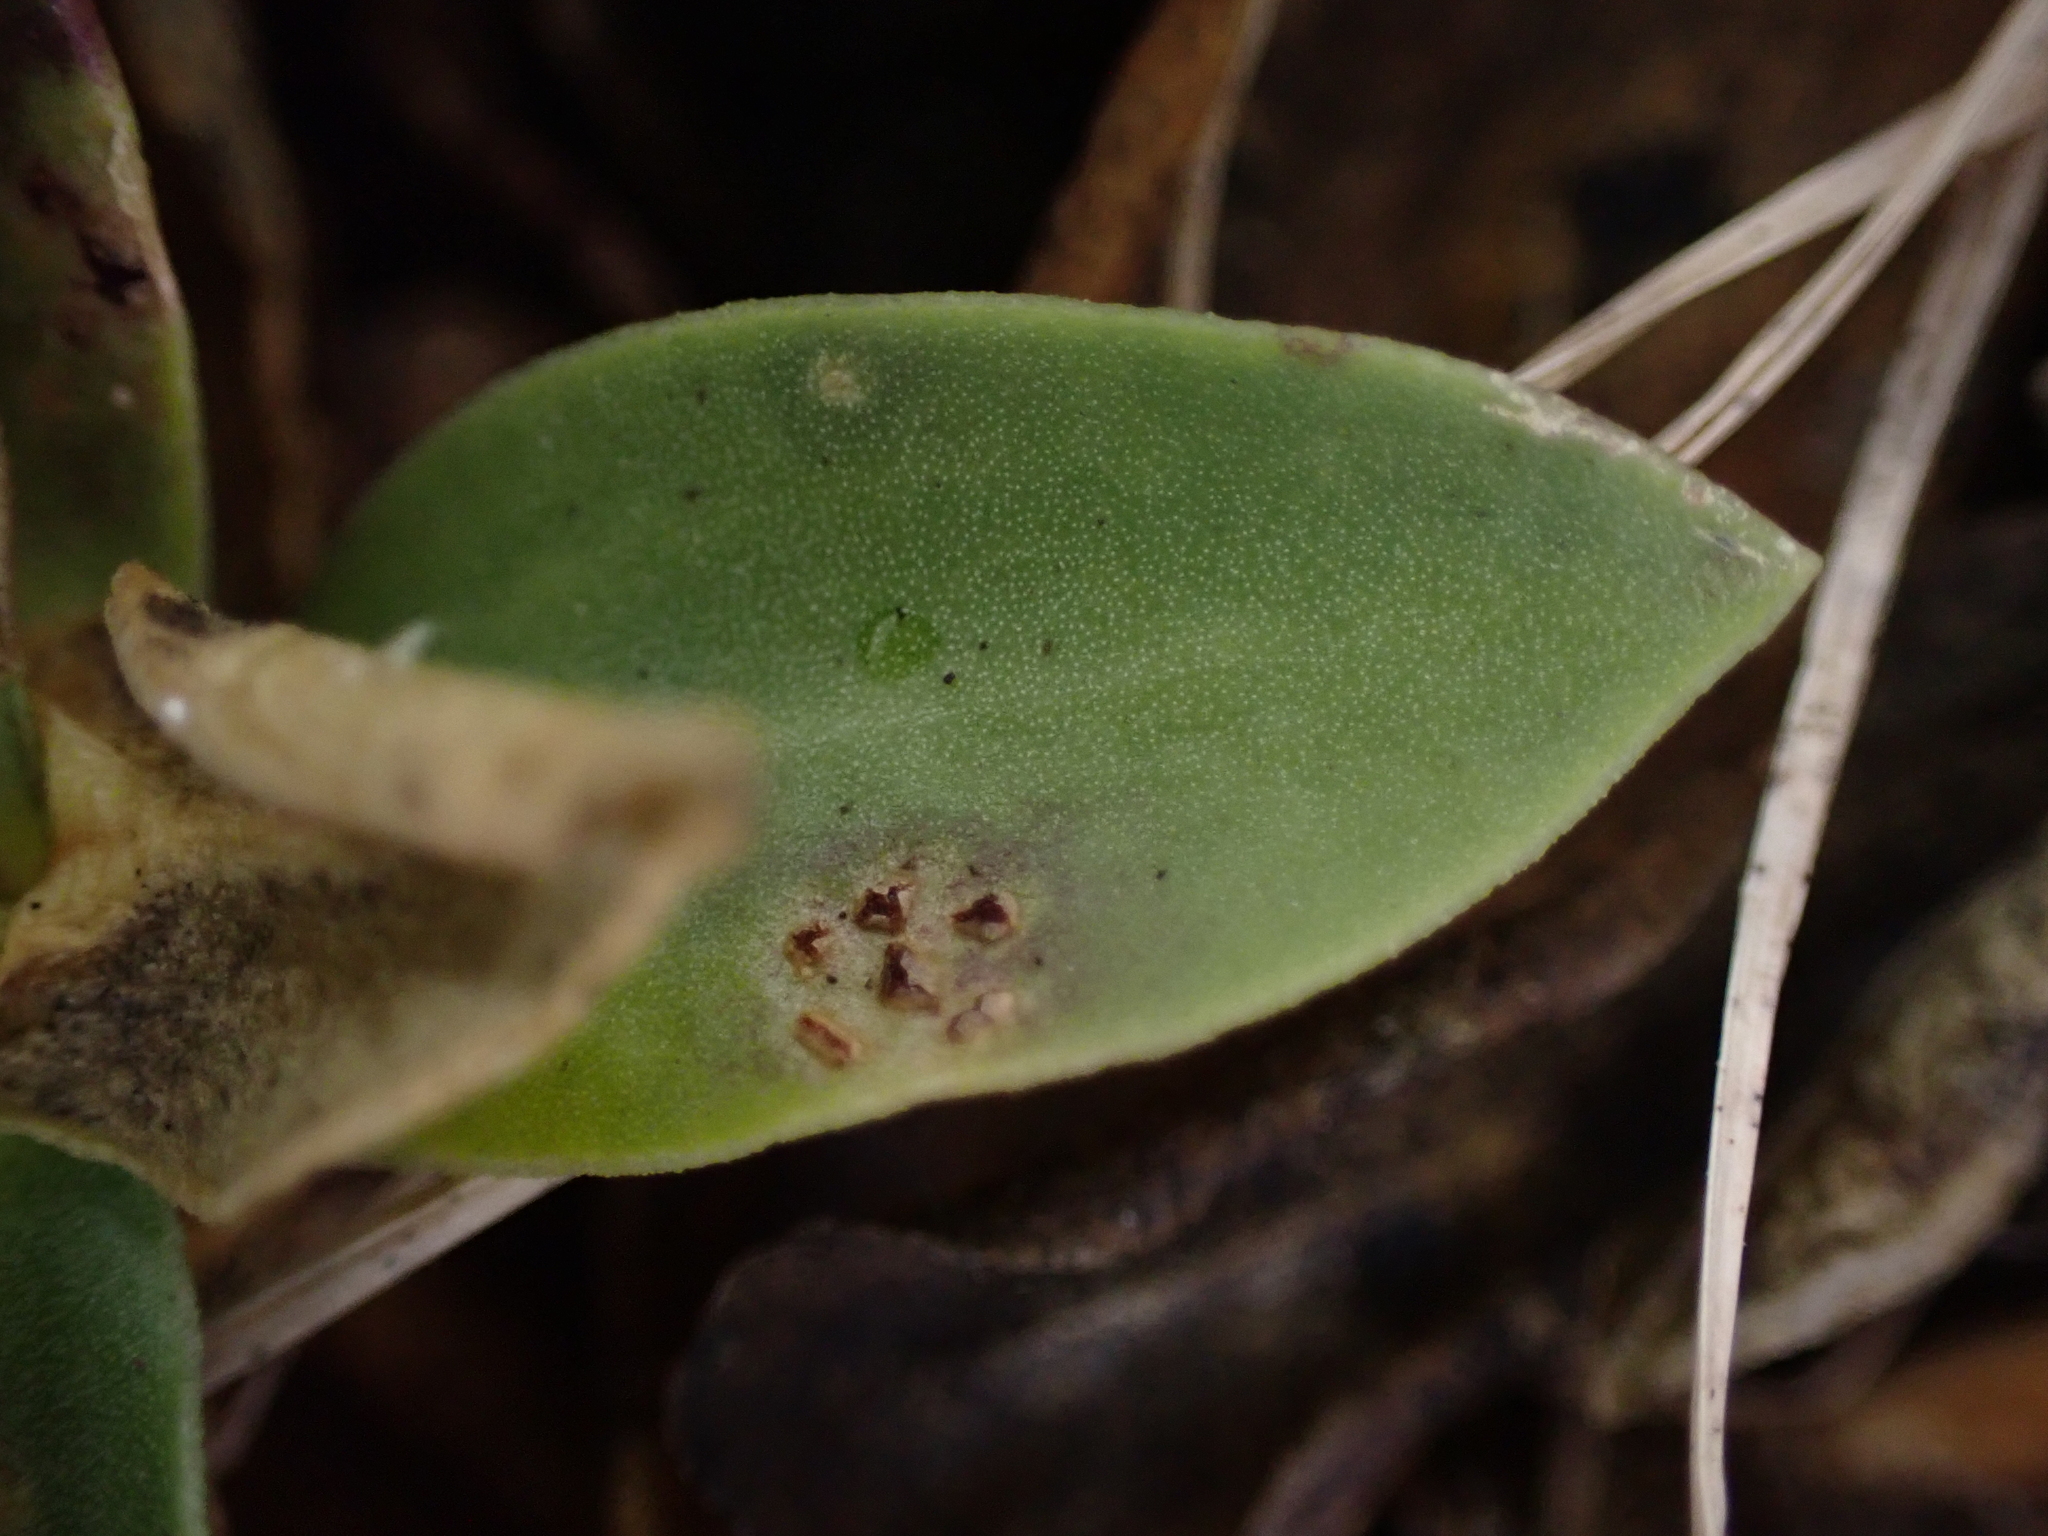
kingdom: Fungi
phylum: Basidiomycota
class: Pucciniomycetes
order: Pucciniales
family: Pucciniaceae
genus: Puccinia
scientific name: Puccinia gentianae
